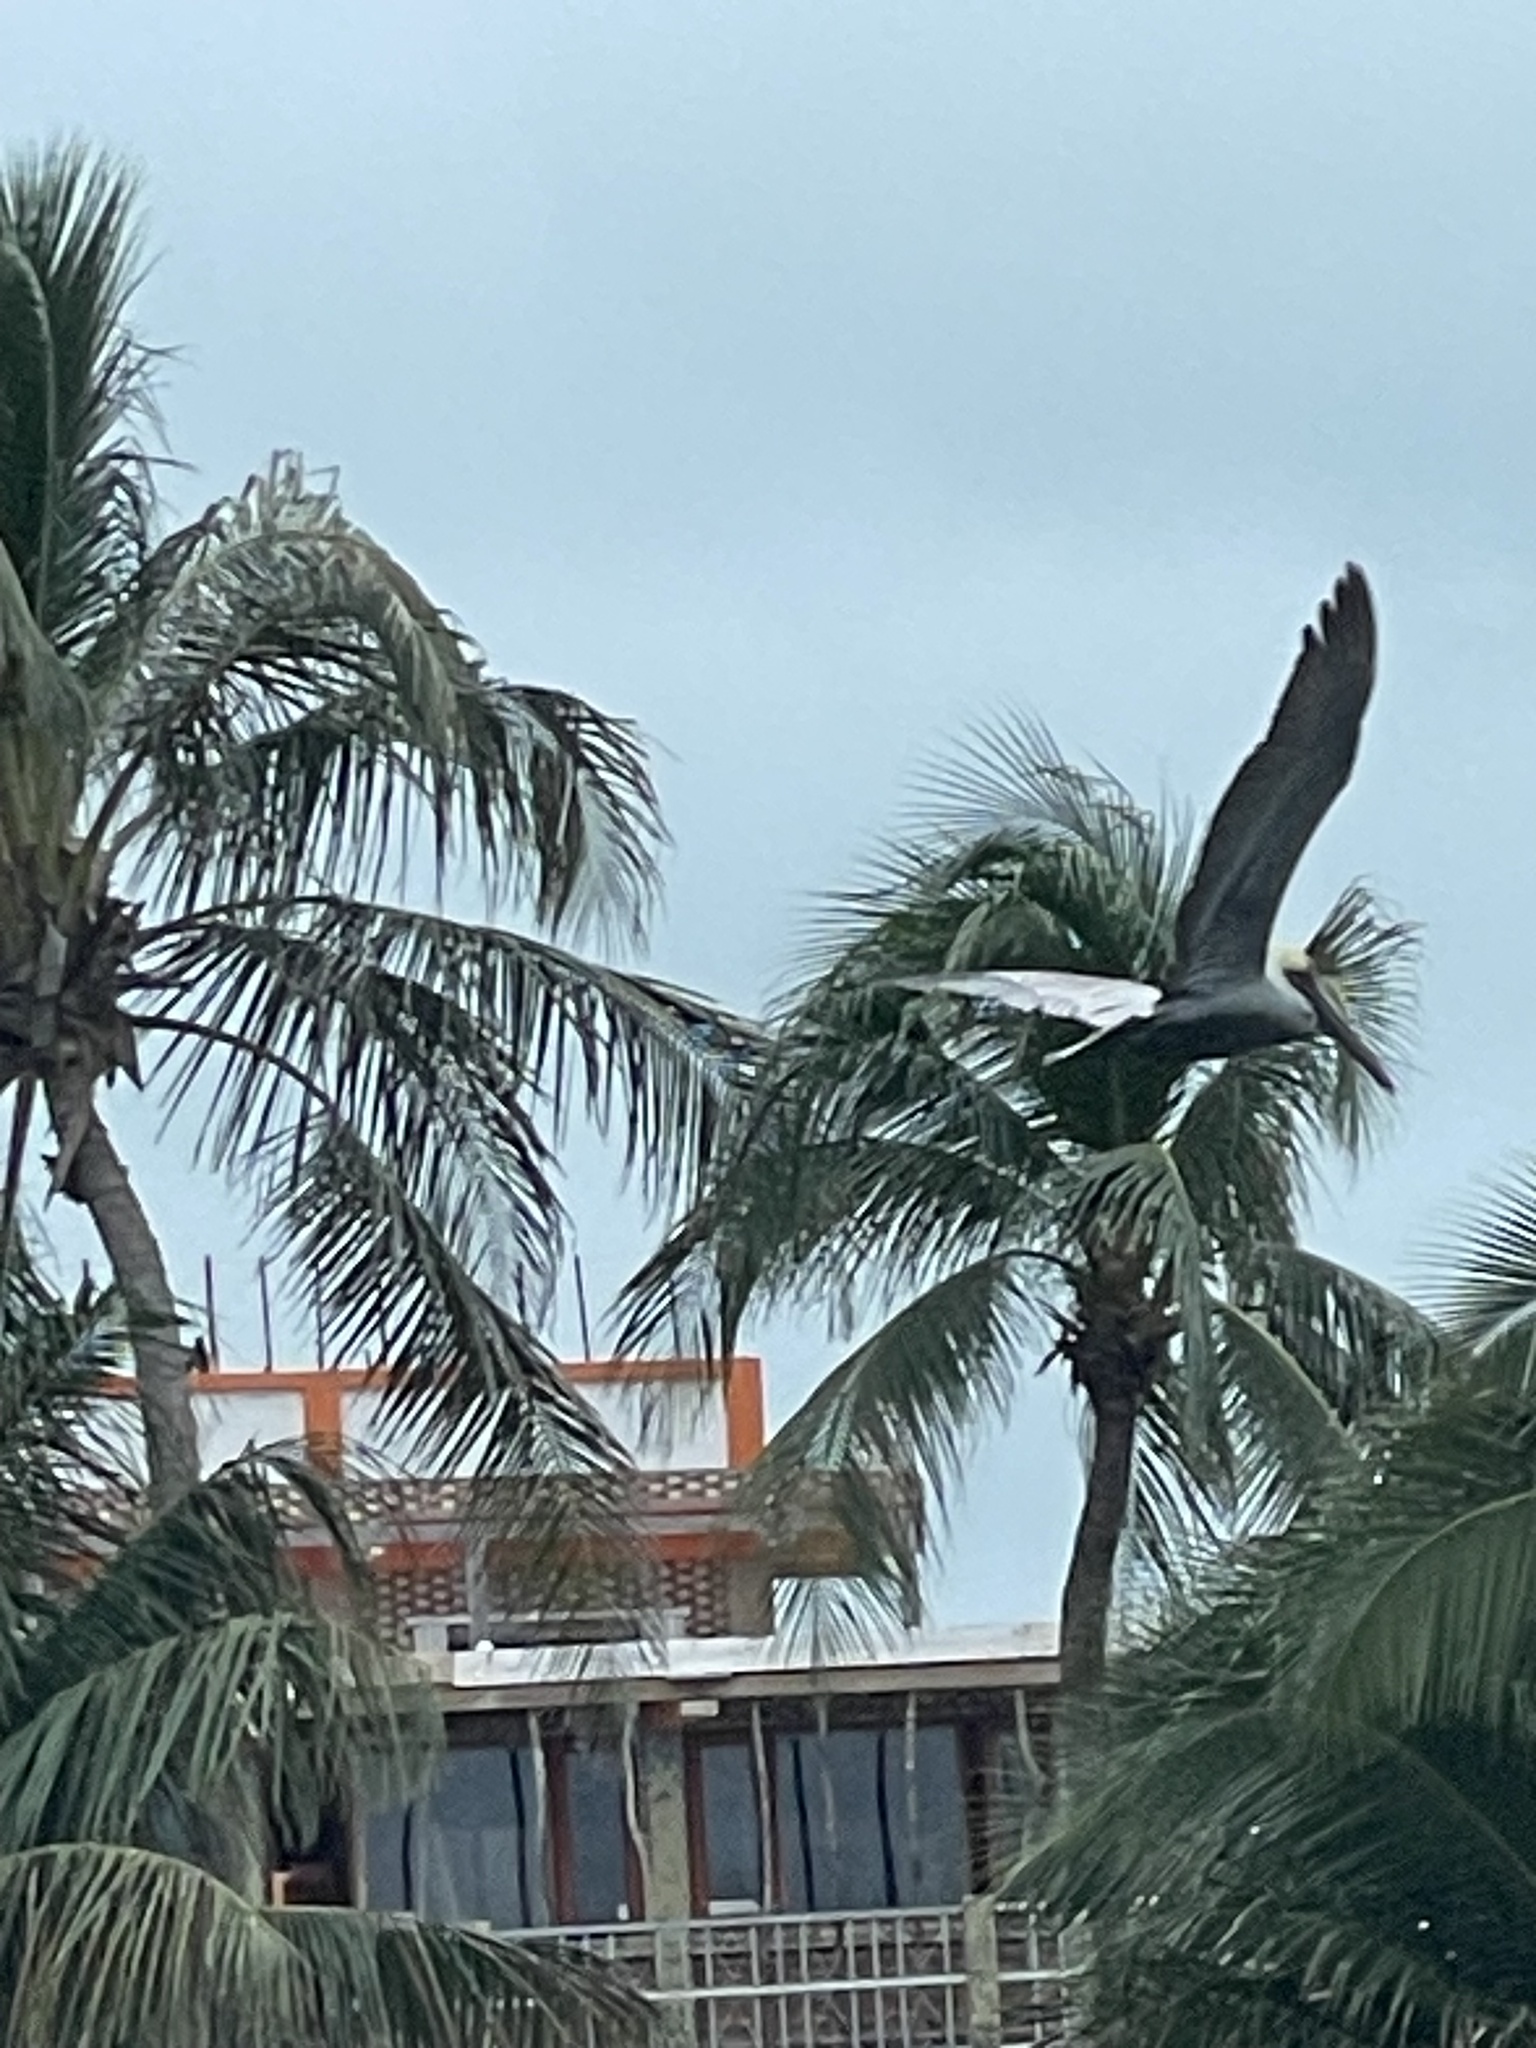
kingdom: Animalia
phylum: Chordata
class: Aves
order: Pelecaniformes
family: Pelecanidae
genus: Pelecanus
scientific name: Pelecanus occidentalis
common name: Brown pelican
